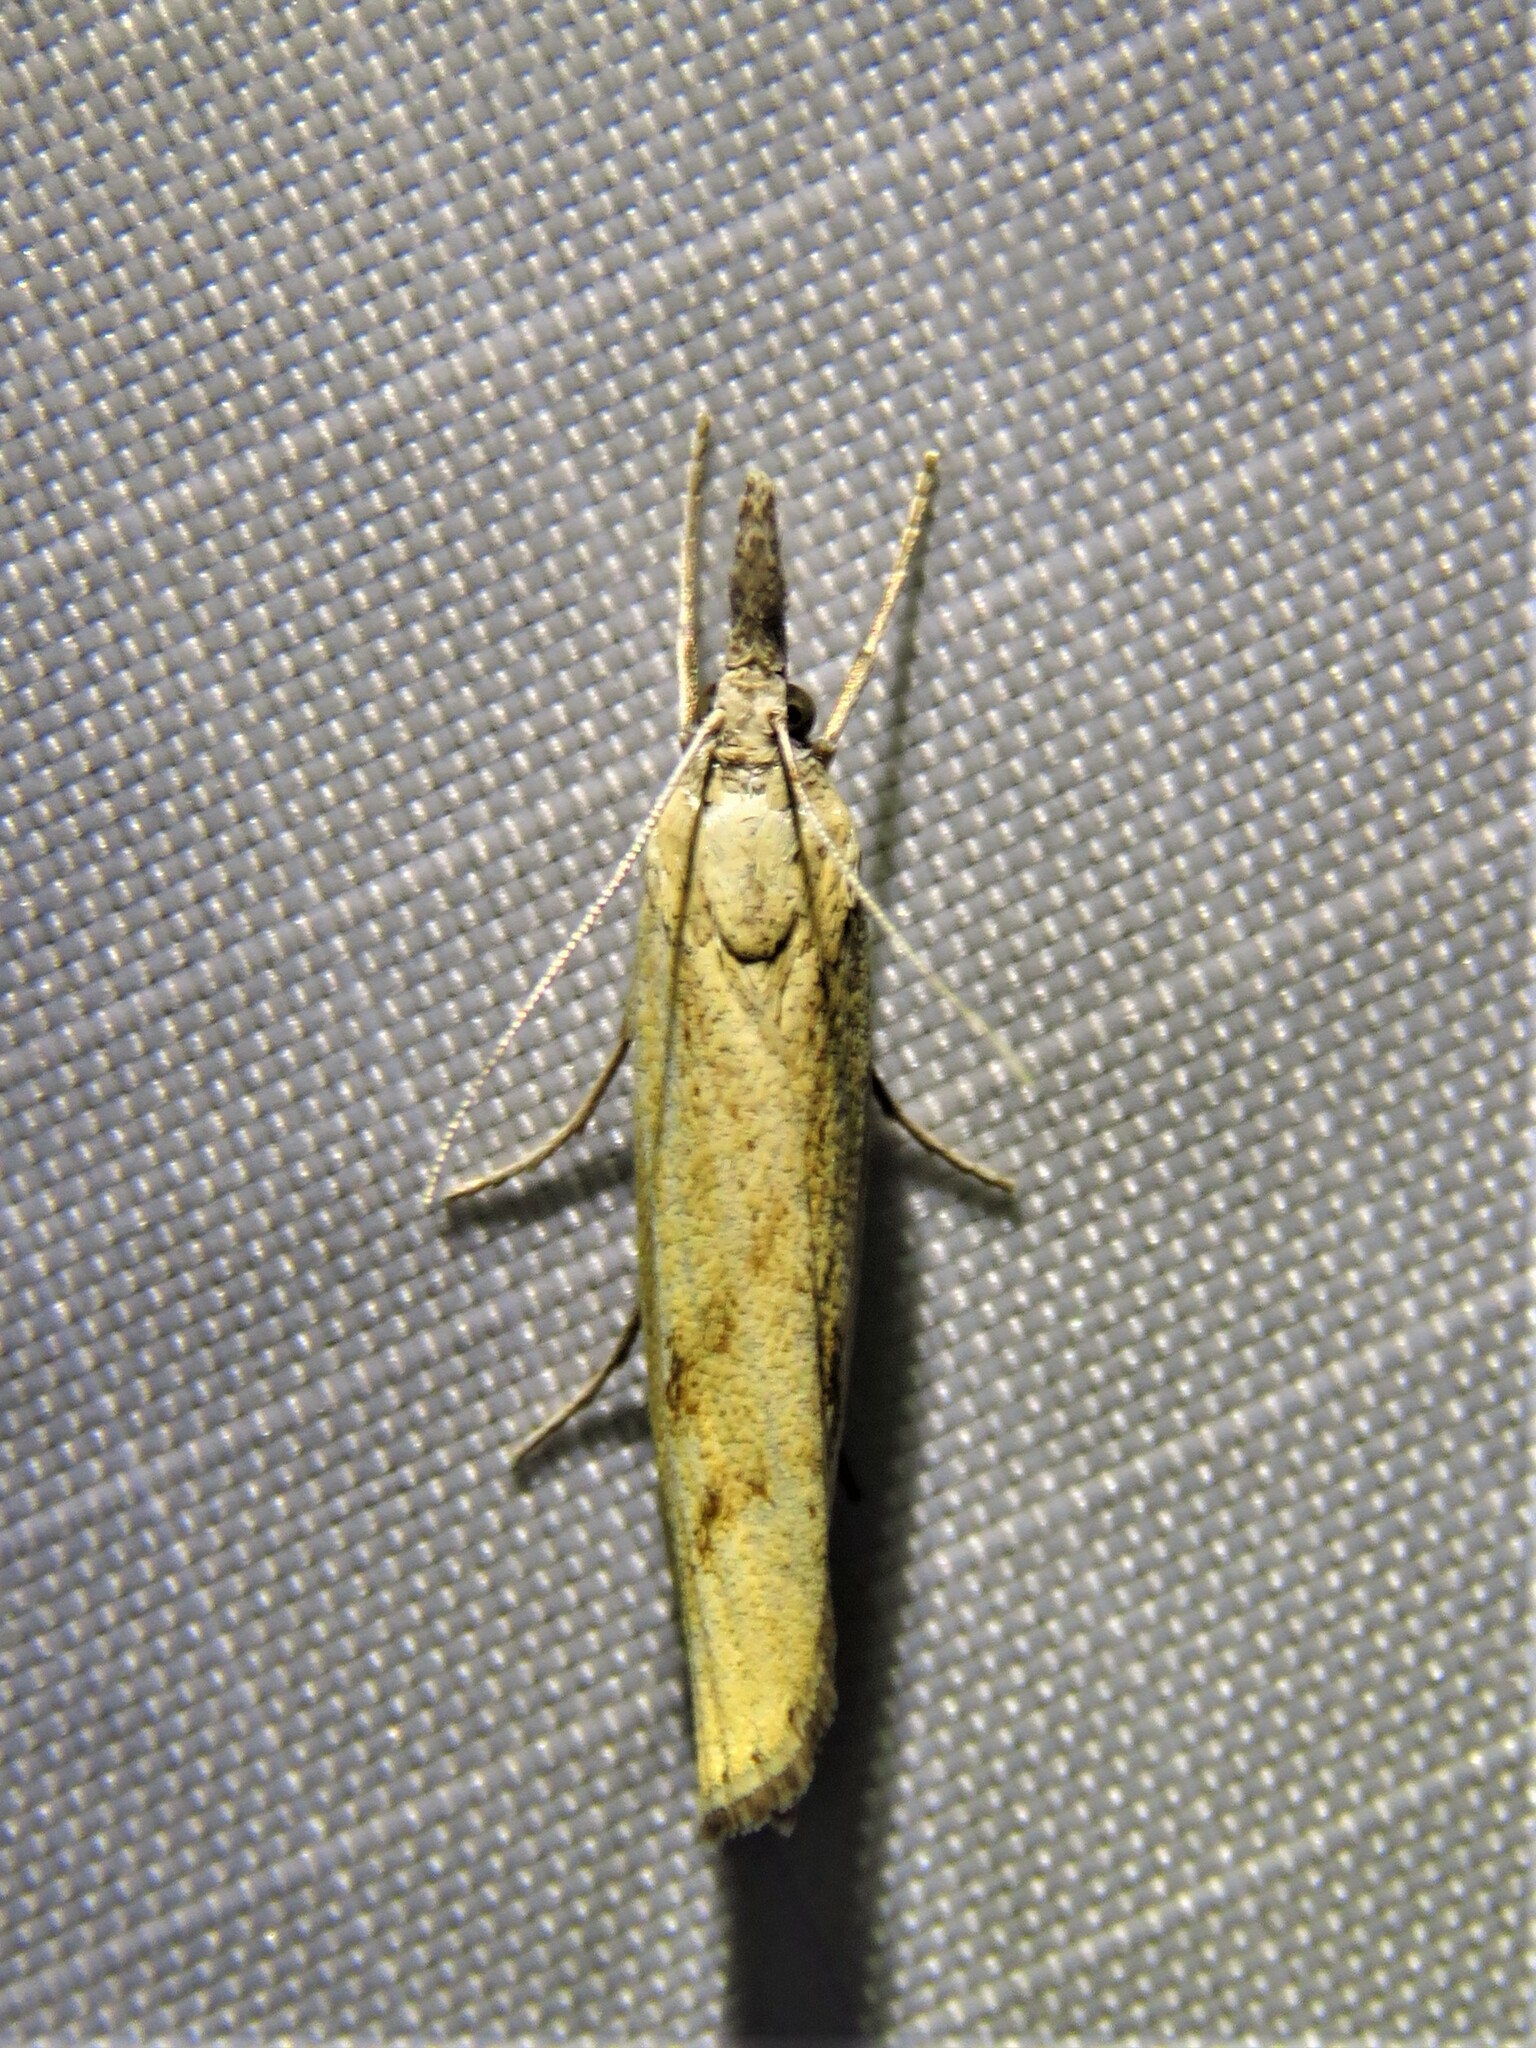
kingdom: Animalia
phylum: Arthropoda
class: Insecta
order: Lepidoptera
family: Crambidae
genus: Agriphila
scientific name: Agriphila inquinatella
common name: Barred grass-veneer
